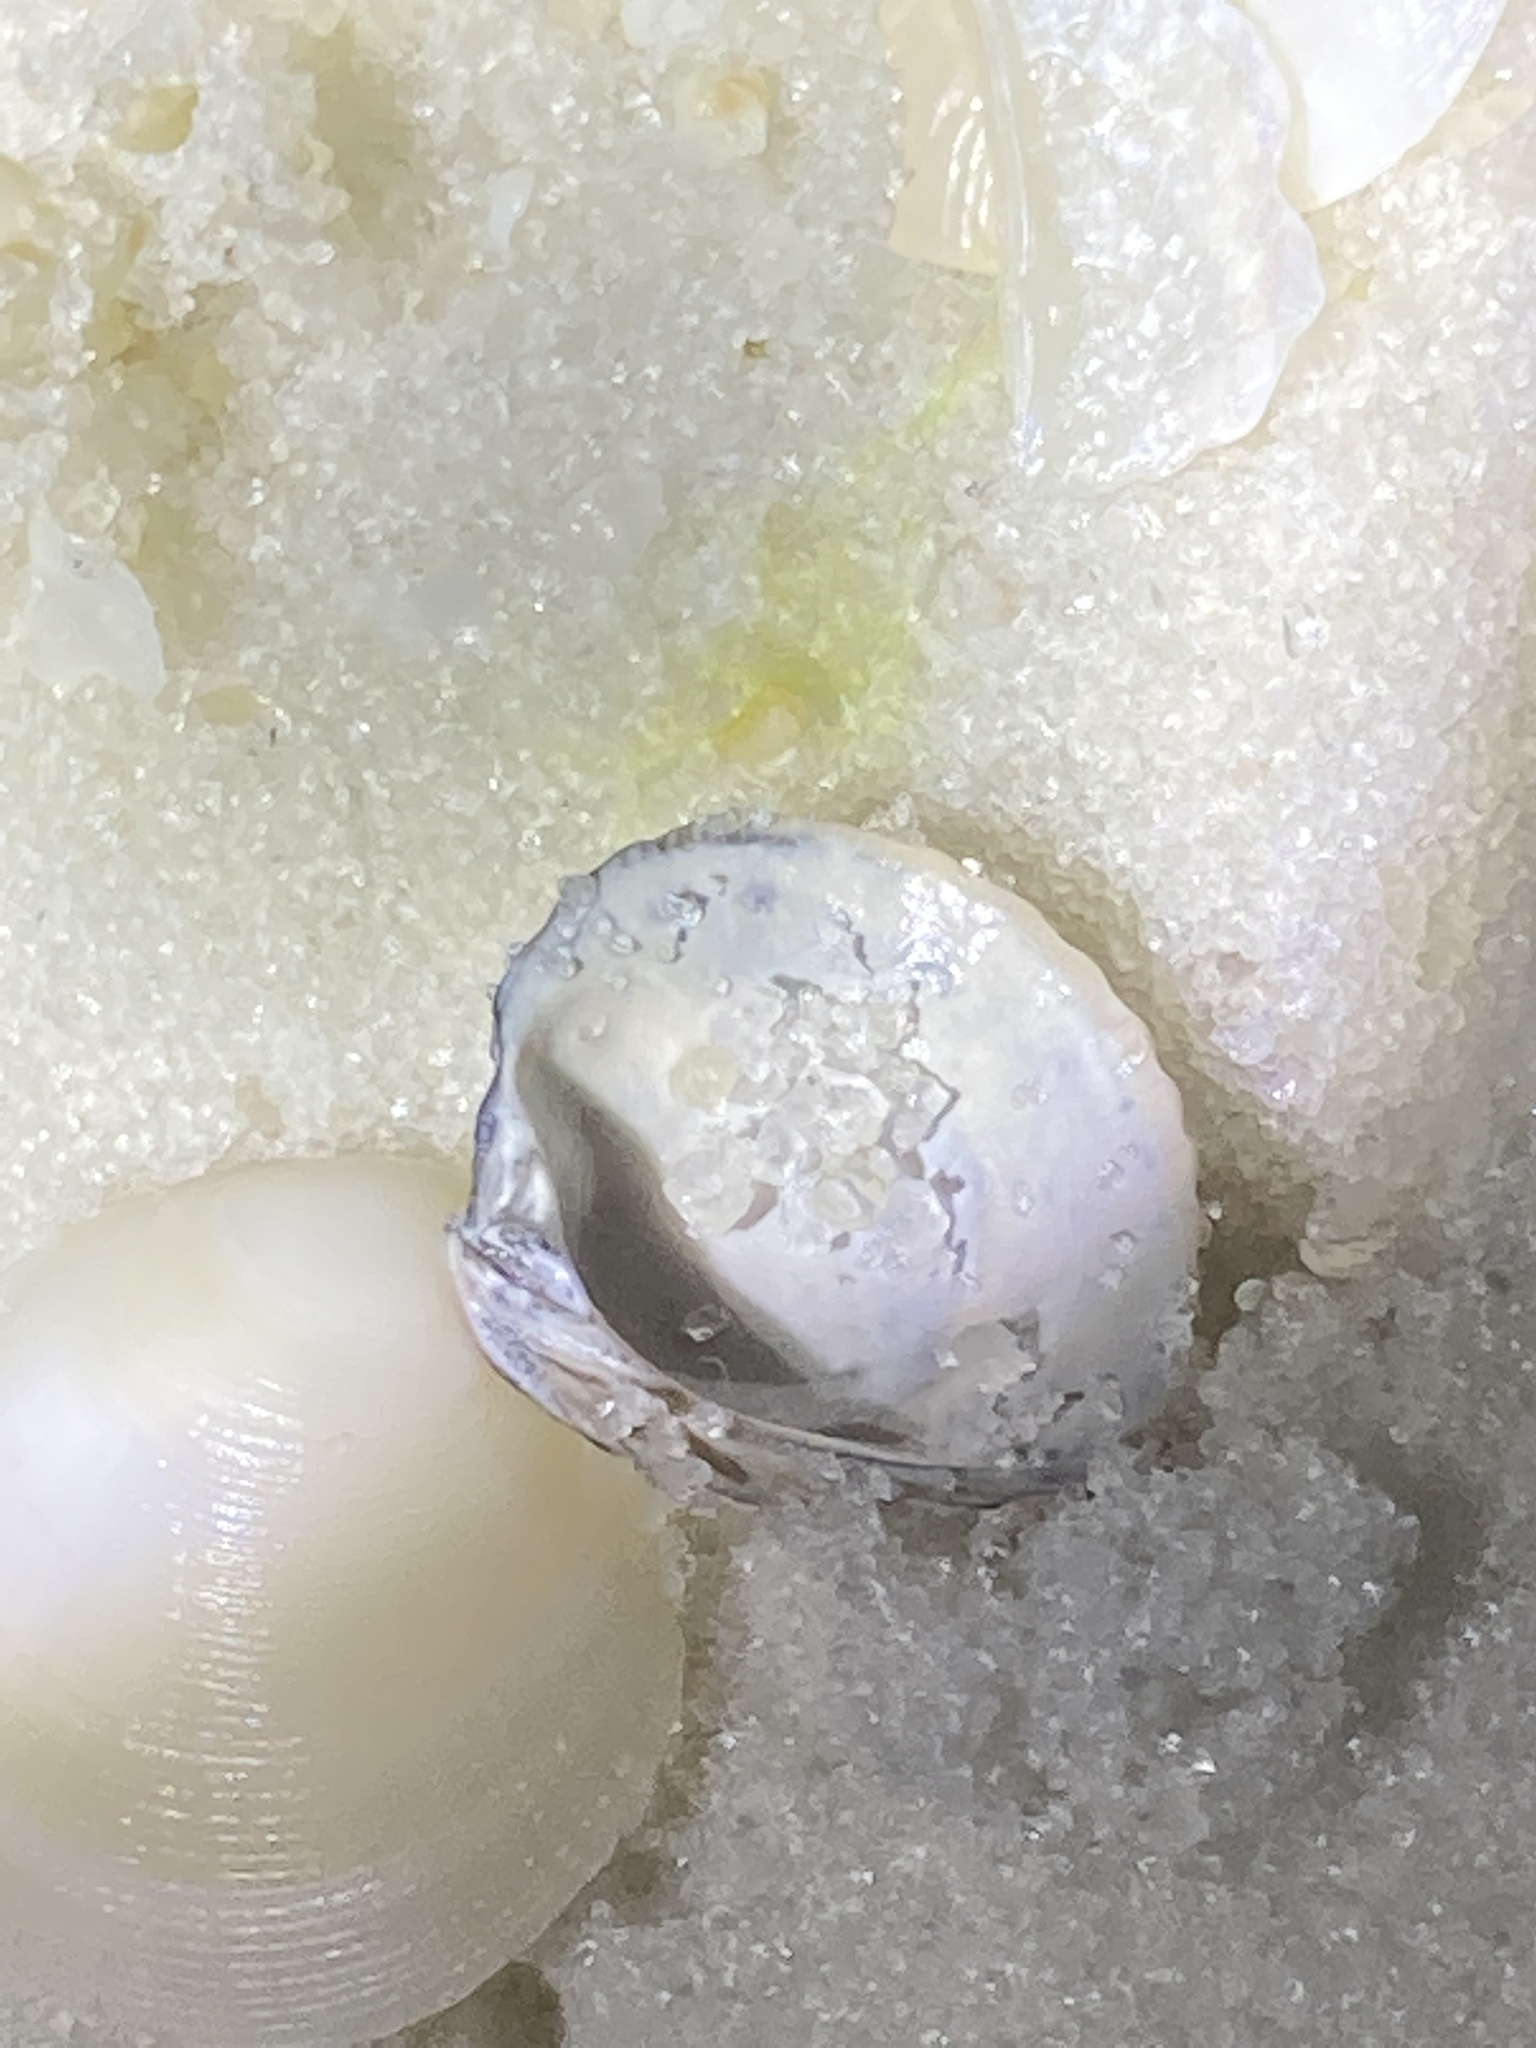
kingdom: Animalia
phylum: Mollusca
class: Bivalvia
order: Venerida
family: Veneridae
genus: Chione
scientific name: Chione elevata
